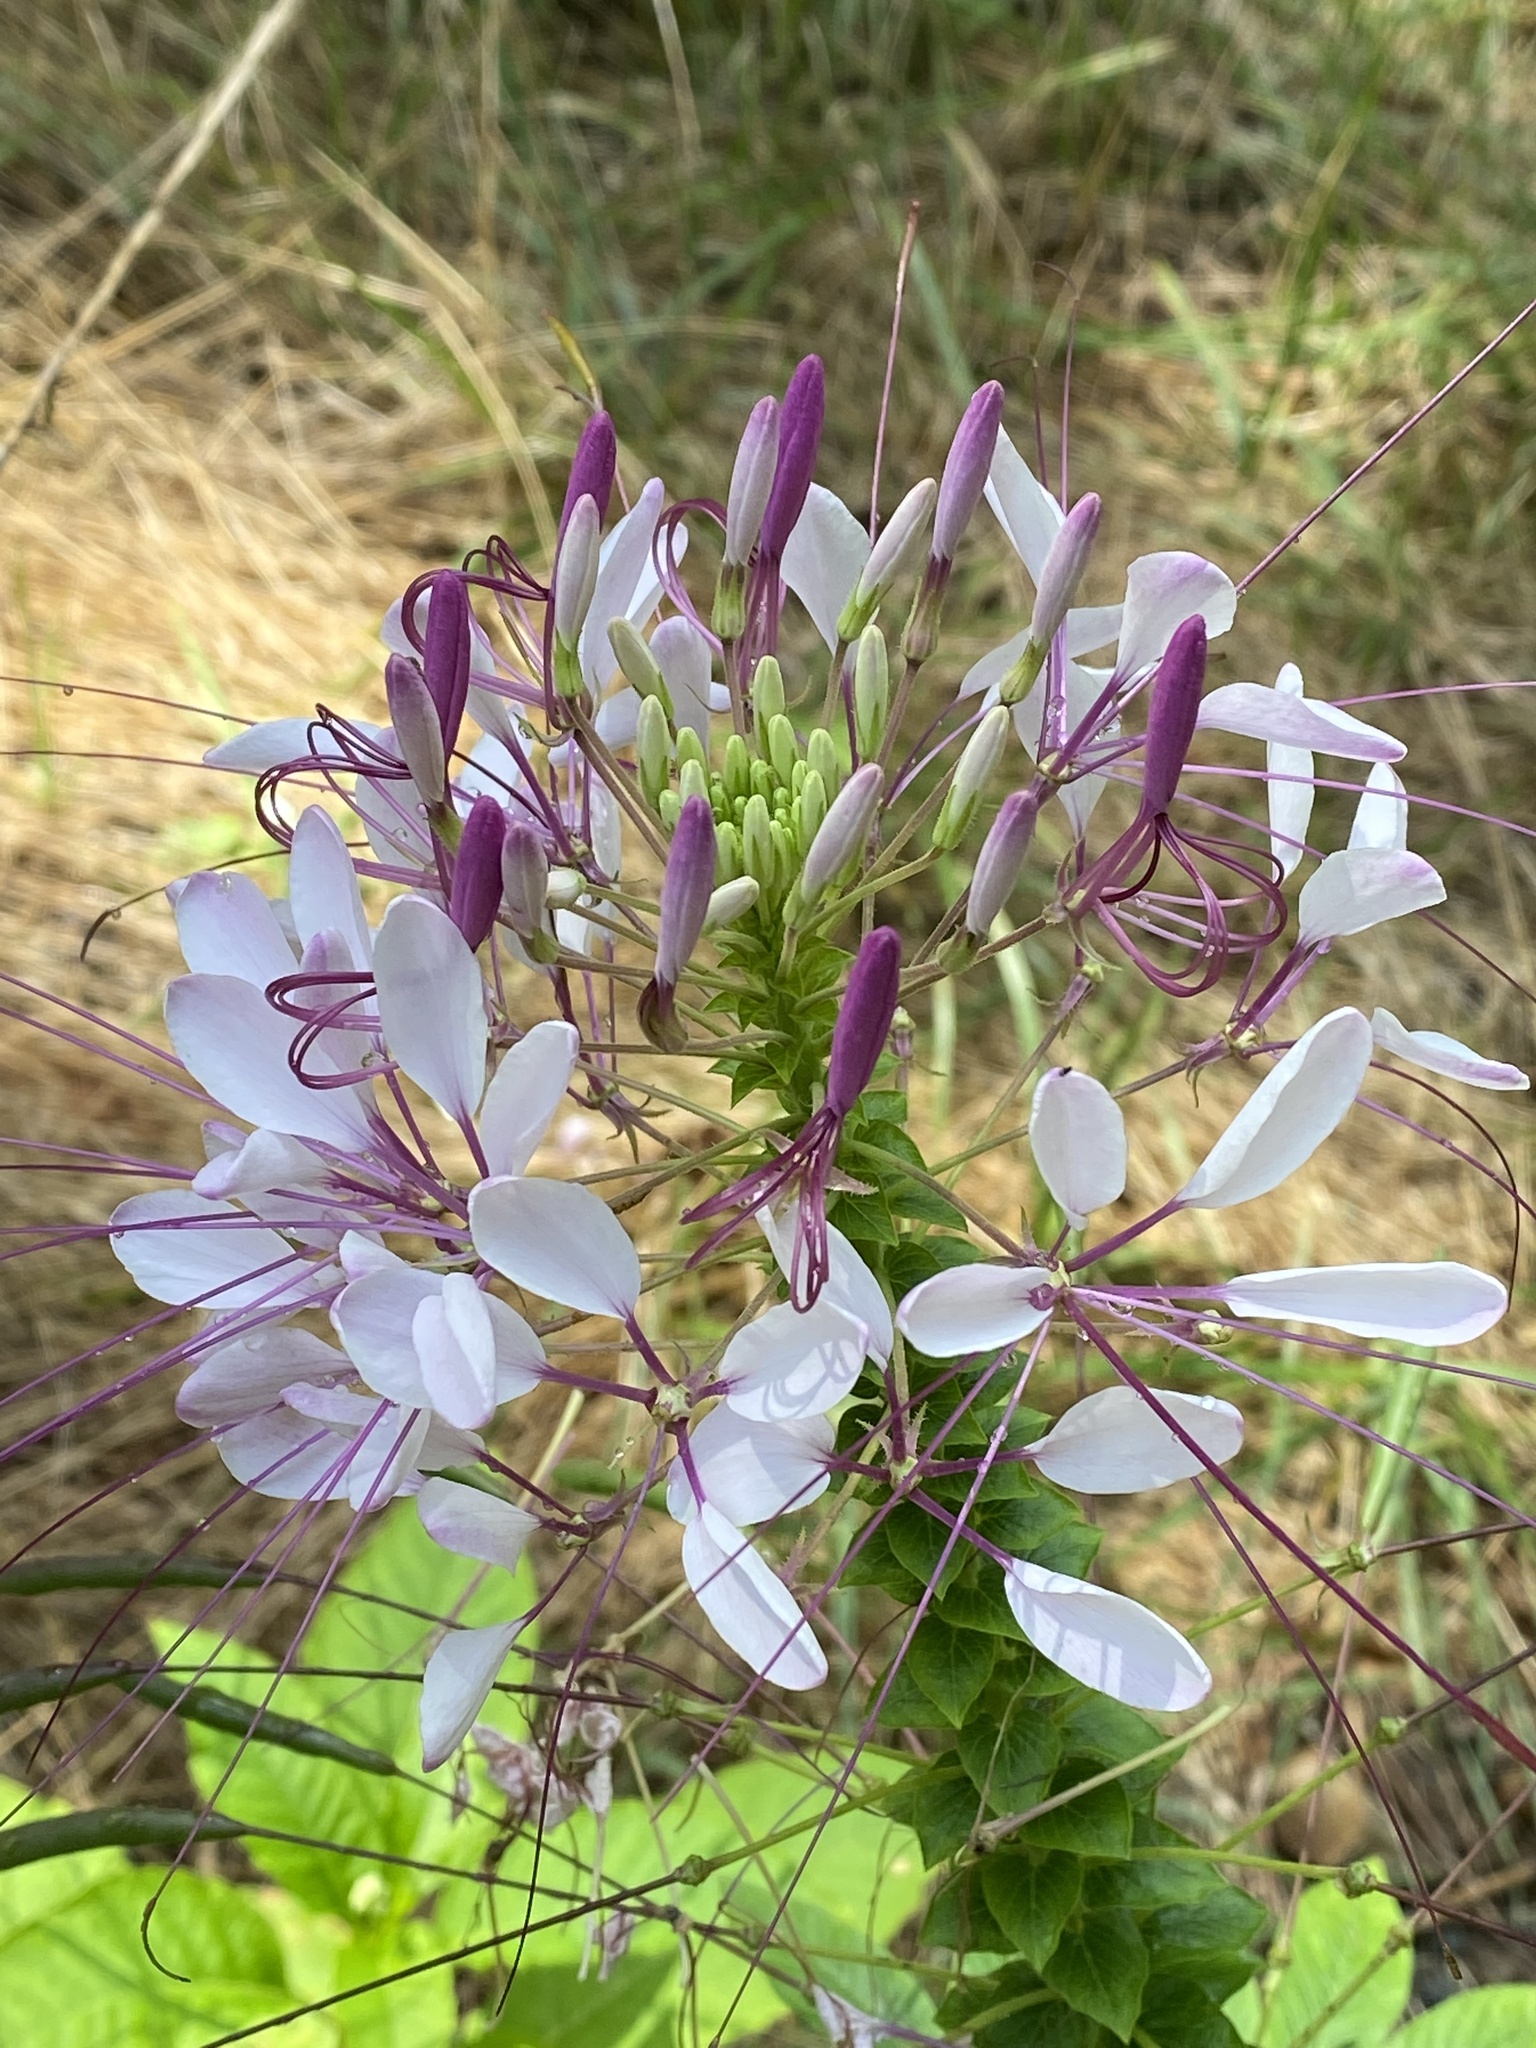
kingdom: Plantae
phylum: Tracheophyta
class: Magnoliopsida
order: Brassicales
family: Cleomaceae
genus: Tarenaya
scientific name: Tarenaya houtteana
